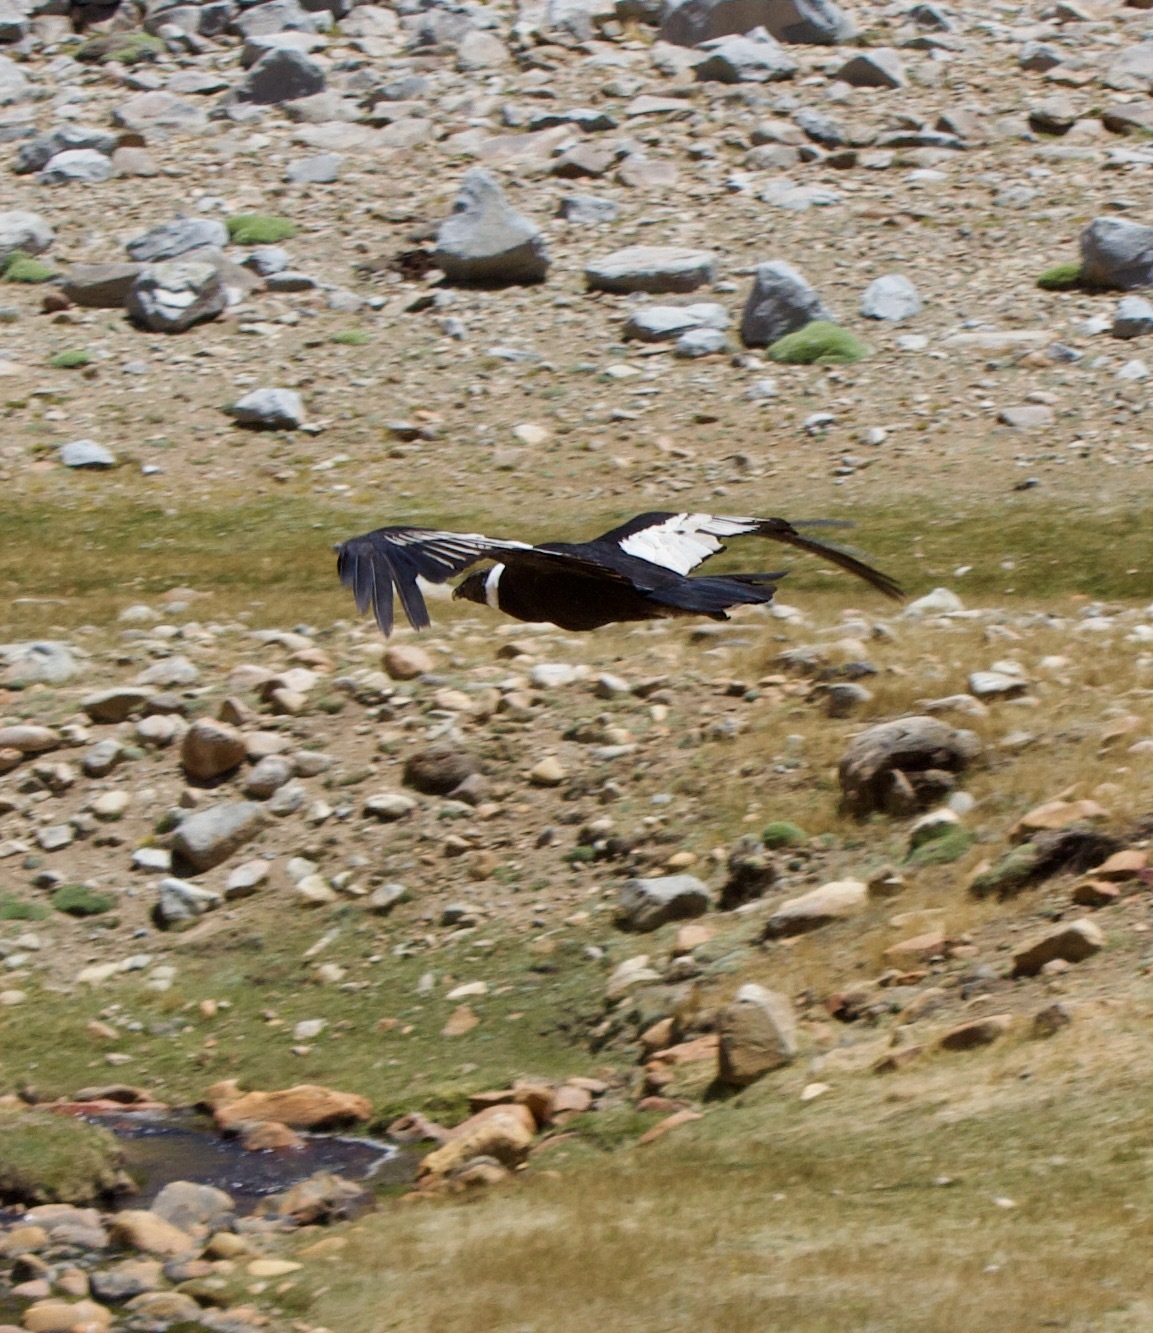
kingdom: Animalia
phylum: Chordata
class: Aves
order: Accipitriformes
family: Cathartidae
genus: Vultur
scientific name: Vultur gryphus
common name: Andean condor
